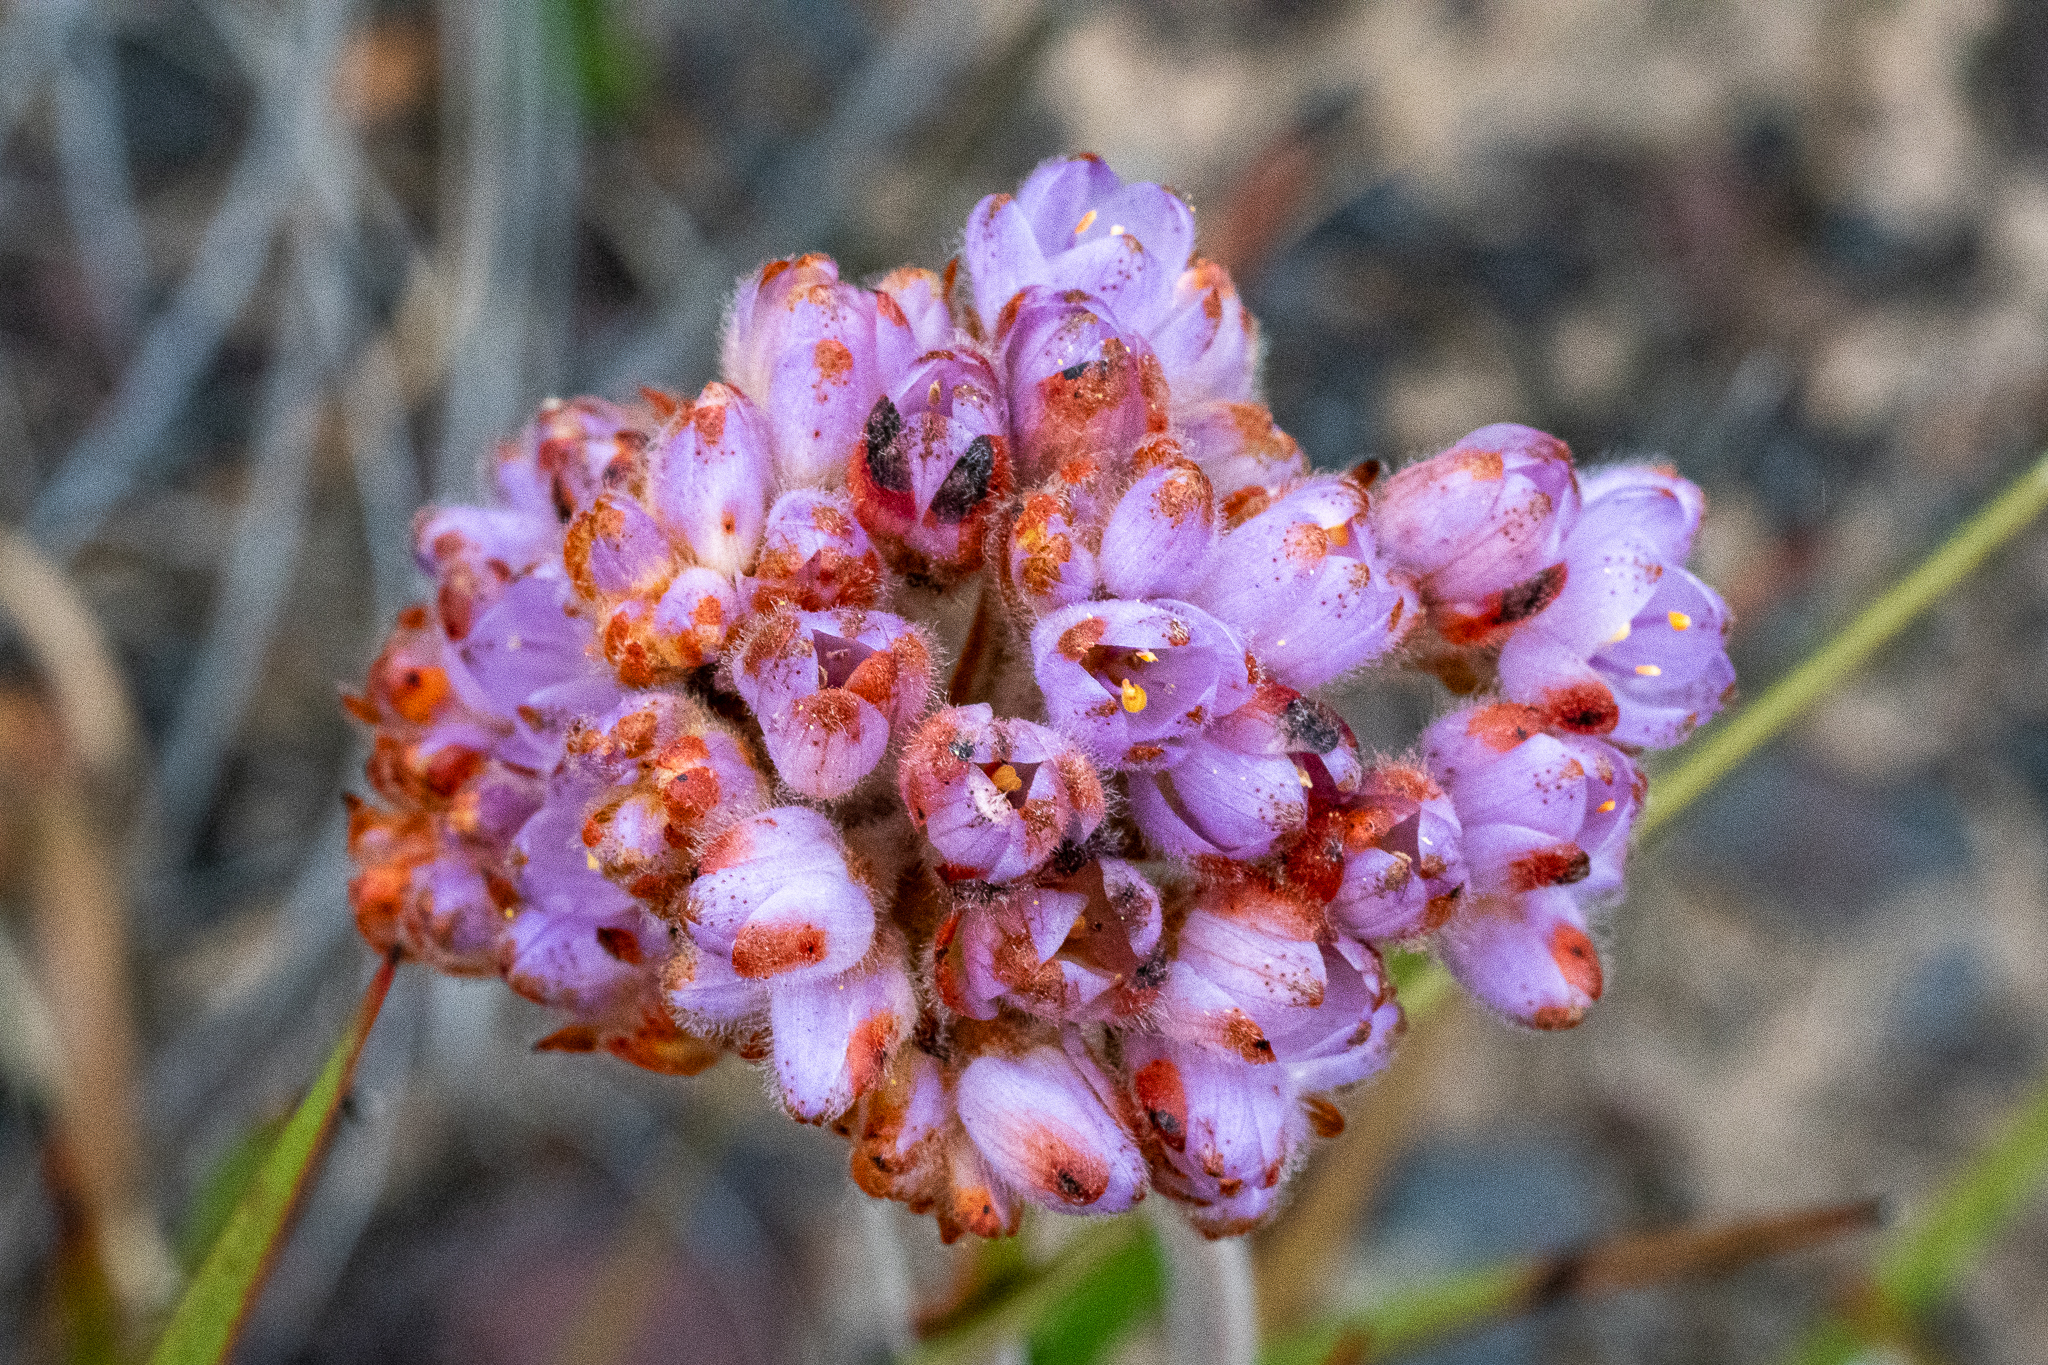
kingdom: Plantae
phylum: Tracheophyta
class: Liliopsida
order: Commelinales
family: Haemodoraceae
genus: Dilatris
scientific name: Dilatris pillansii
